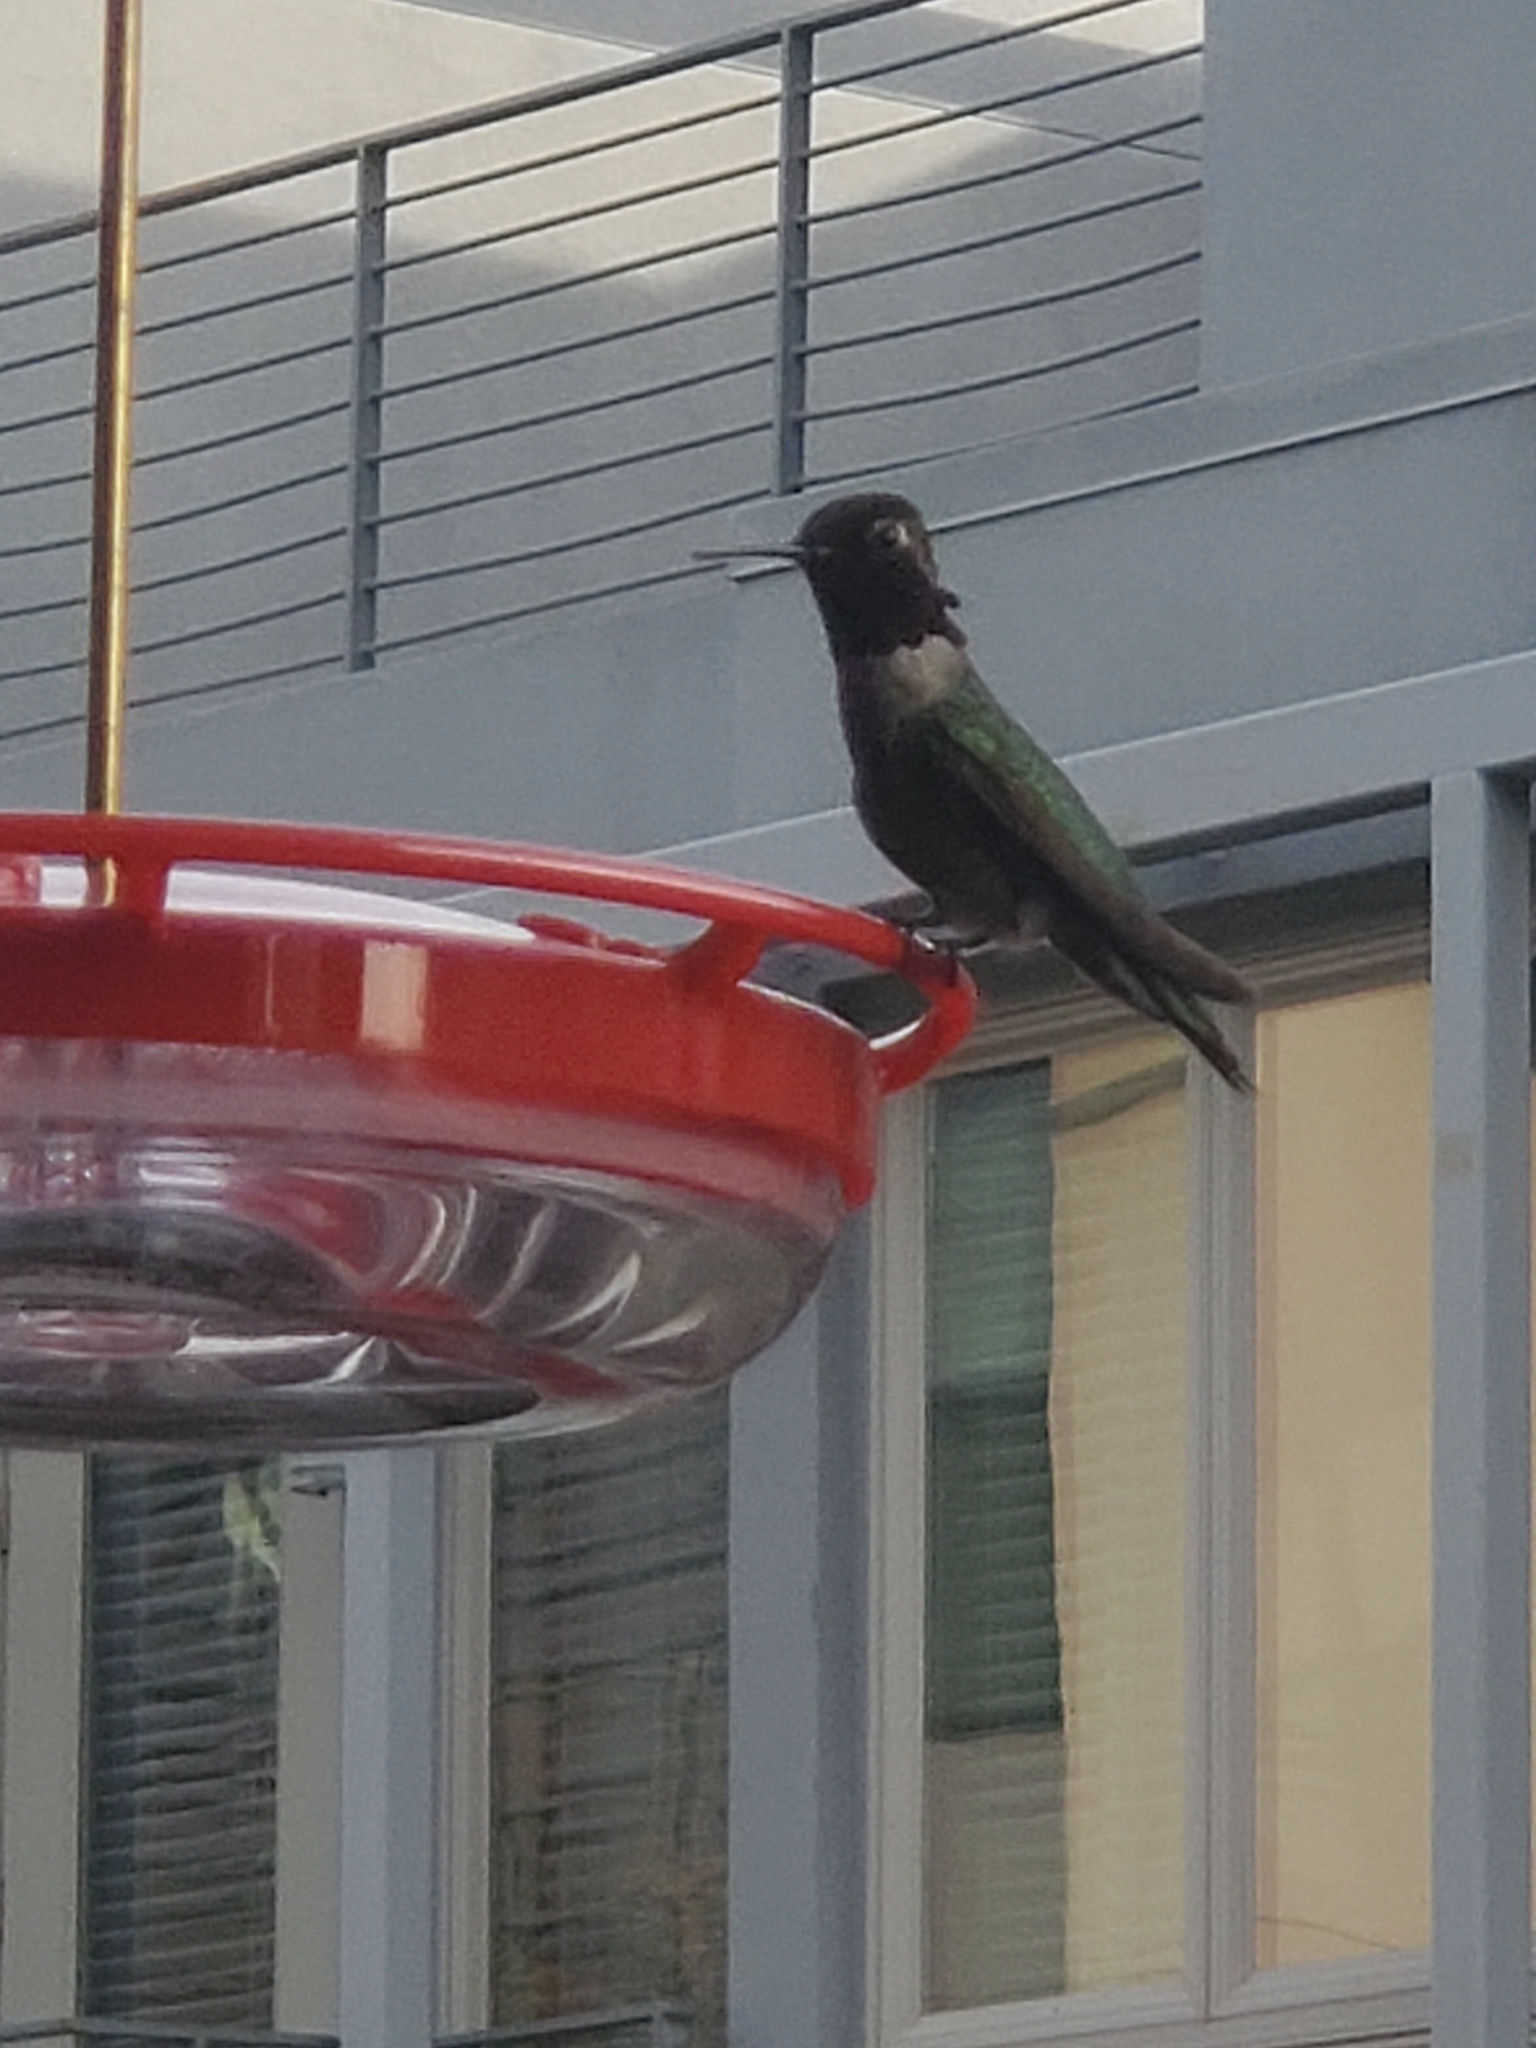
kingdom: Animalia
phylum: Chordata
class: Aves
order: Apodiformes
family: Trochilidae
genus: Calypte
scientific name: Calypte anna
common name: Anna's hummingbird
